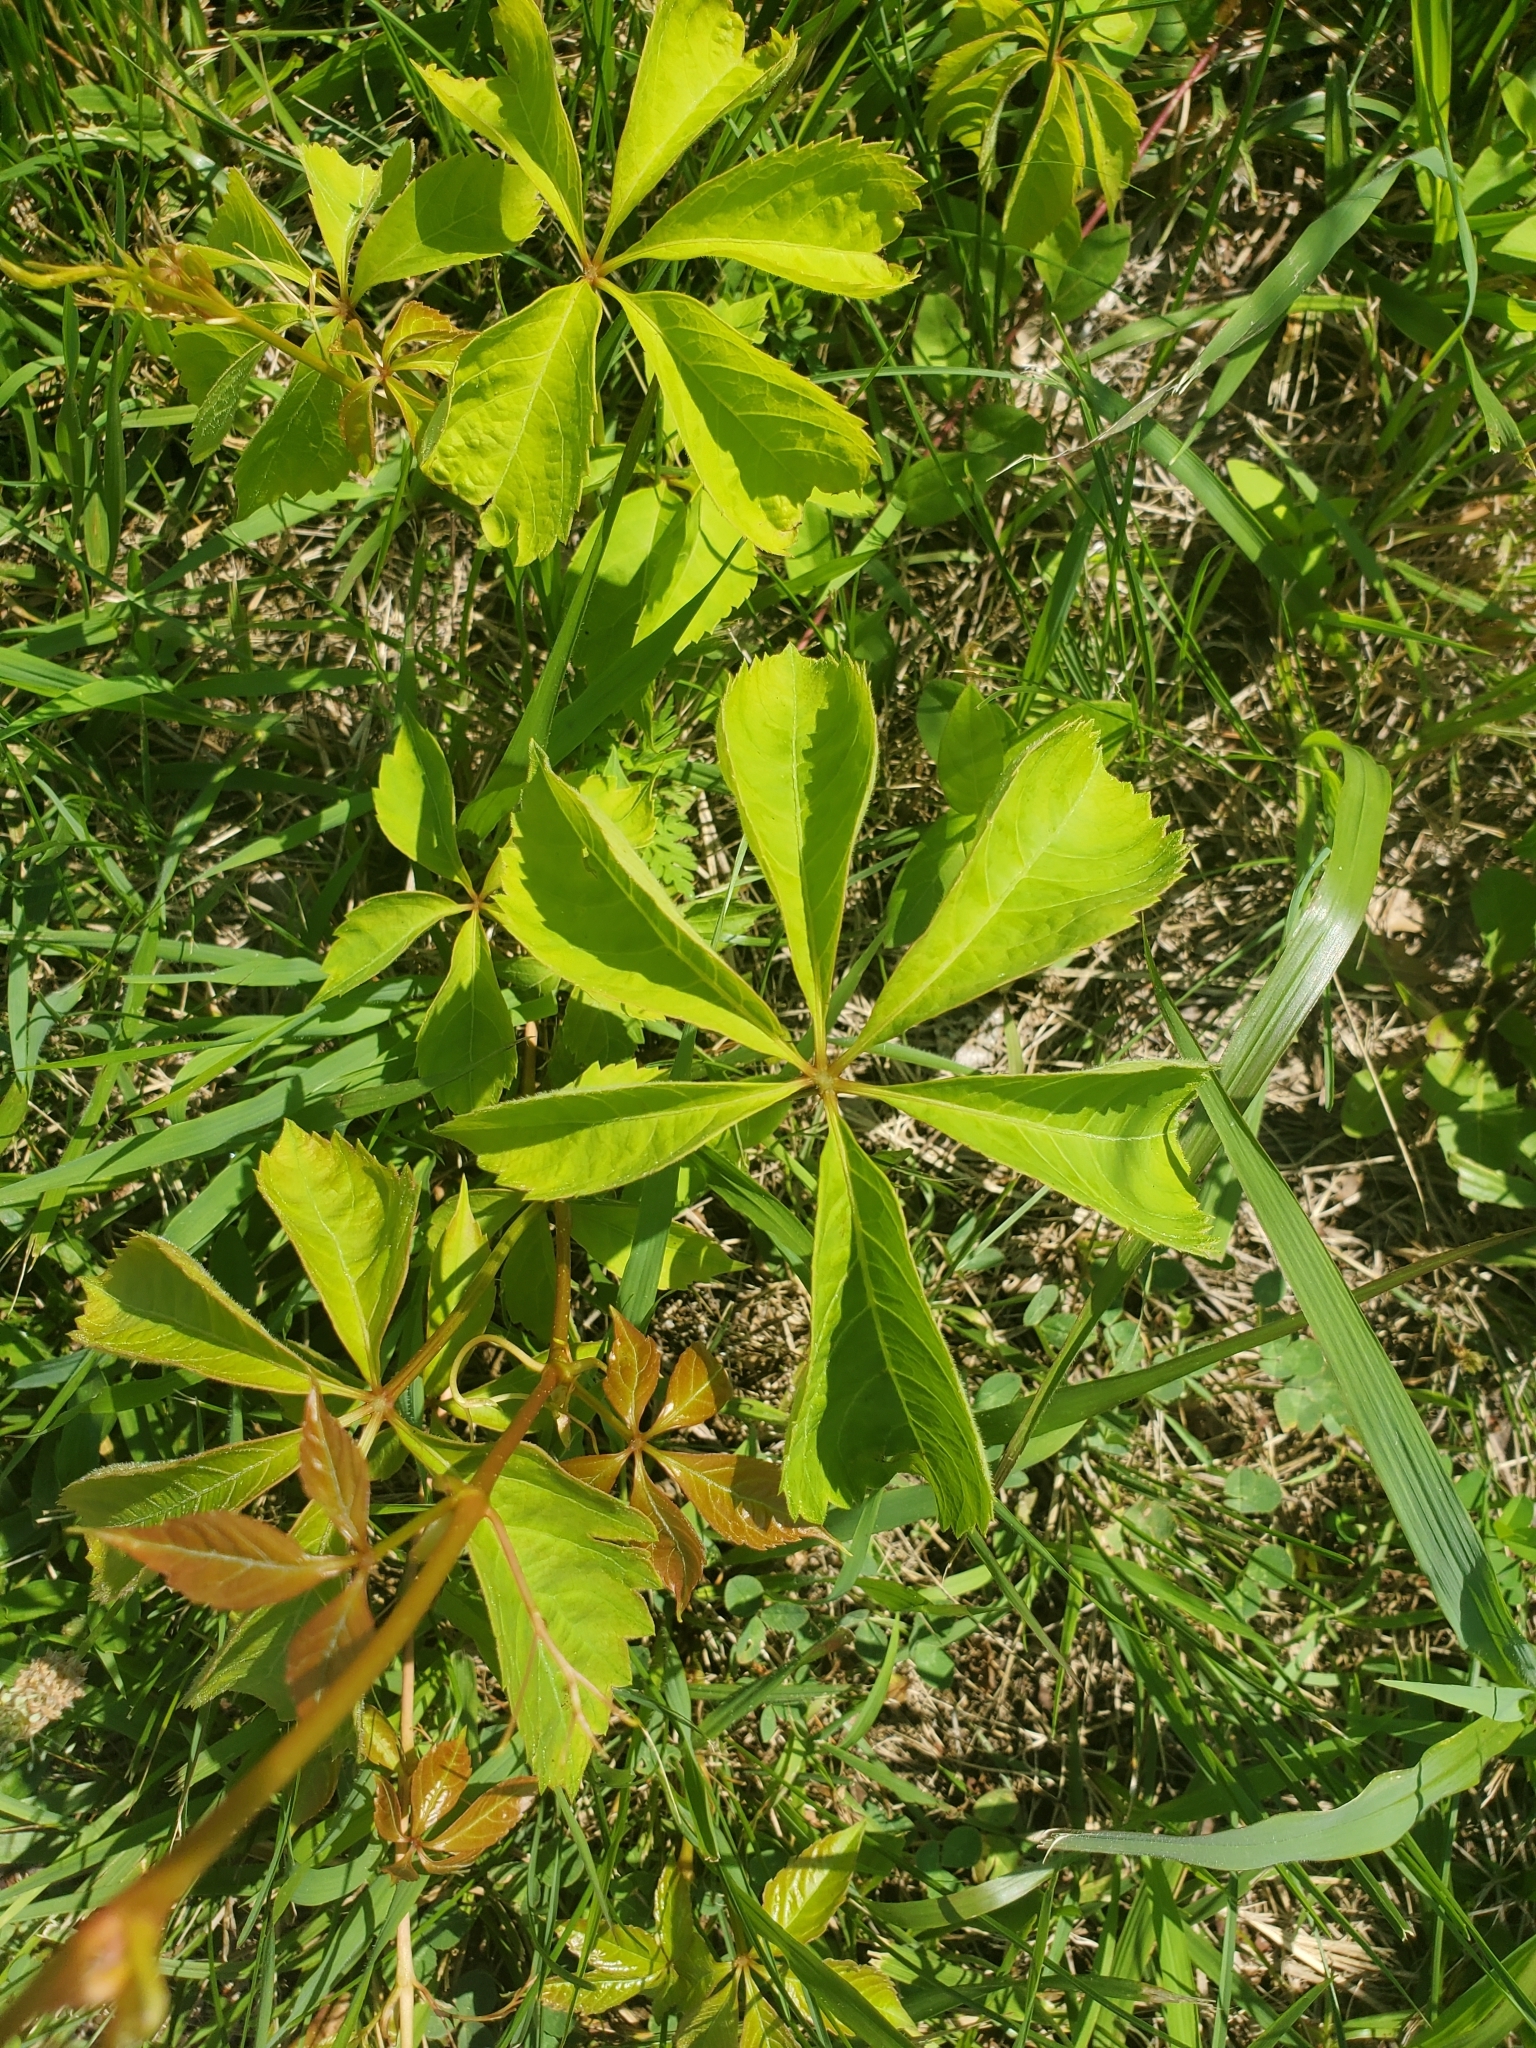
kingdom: Plantae
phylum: Tracheophyta
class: Magnoliopsida
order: Vitales
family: Vitaceae
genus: Parthenocissus
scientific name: Parthenocissus quinquefolia
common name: Virginia-creeper
